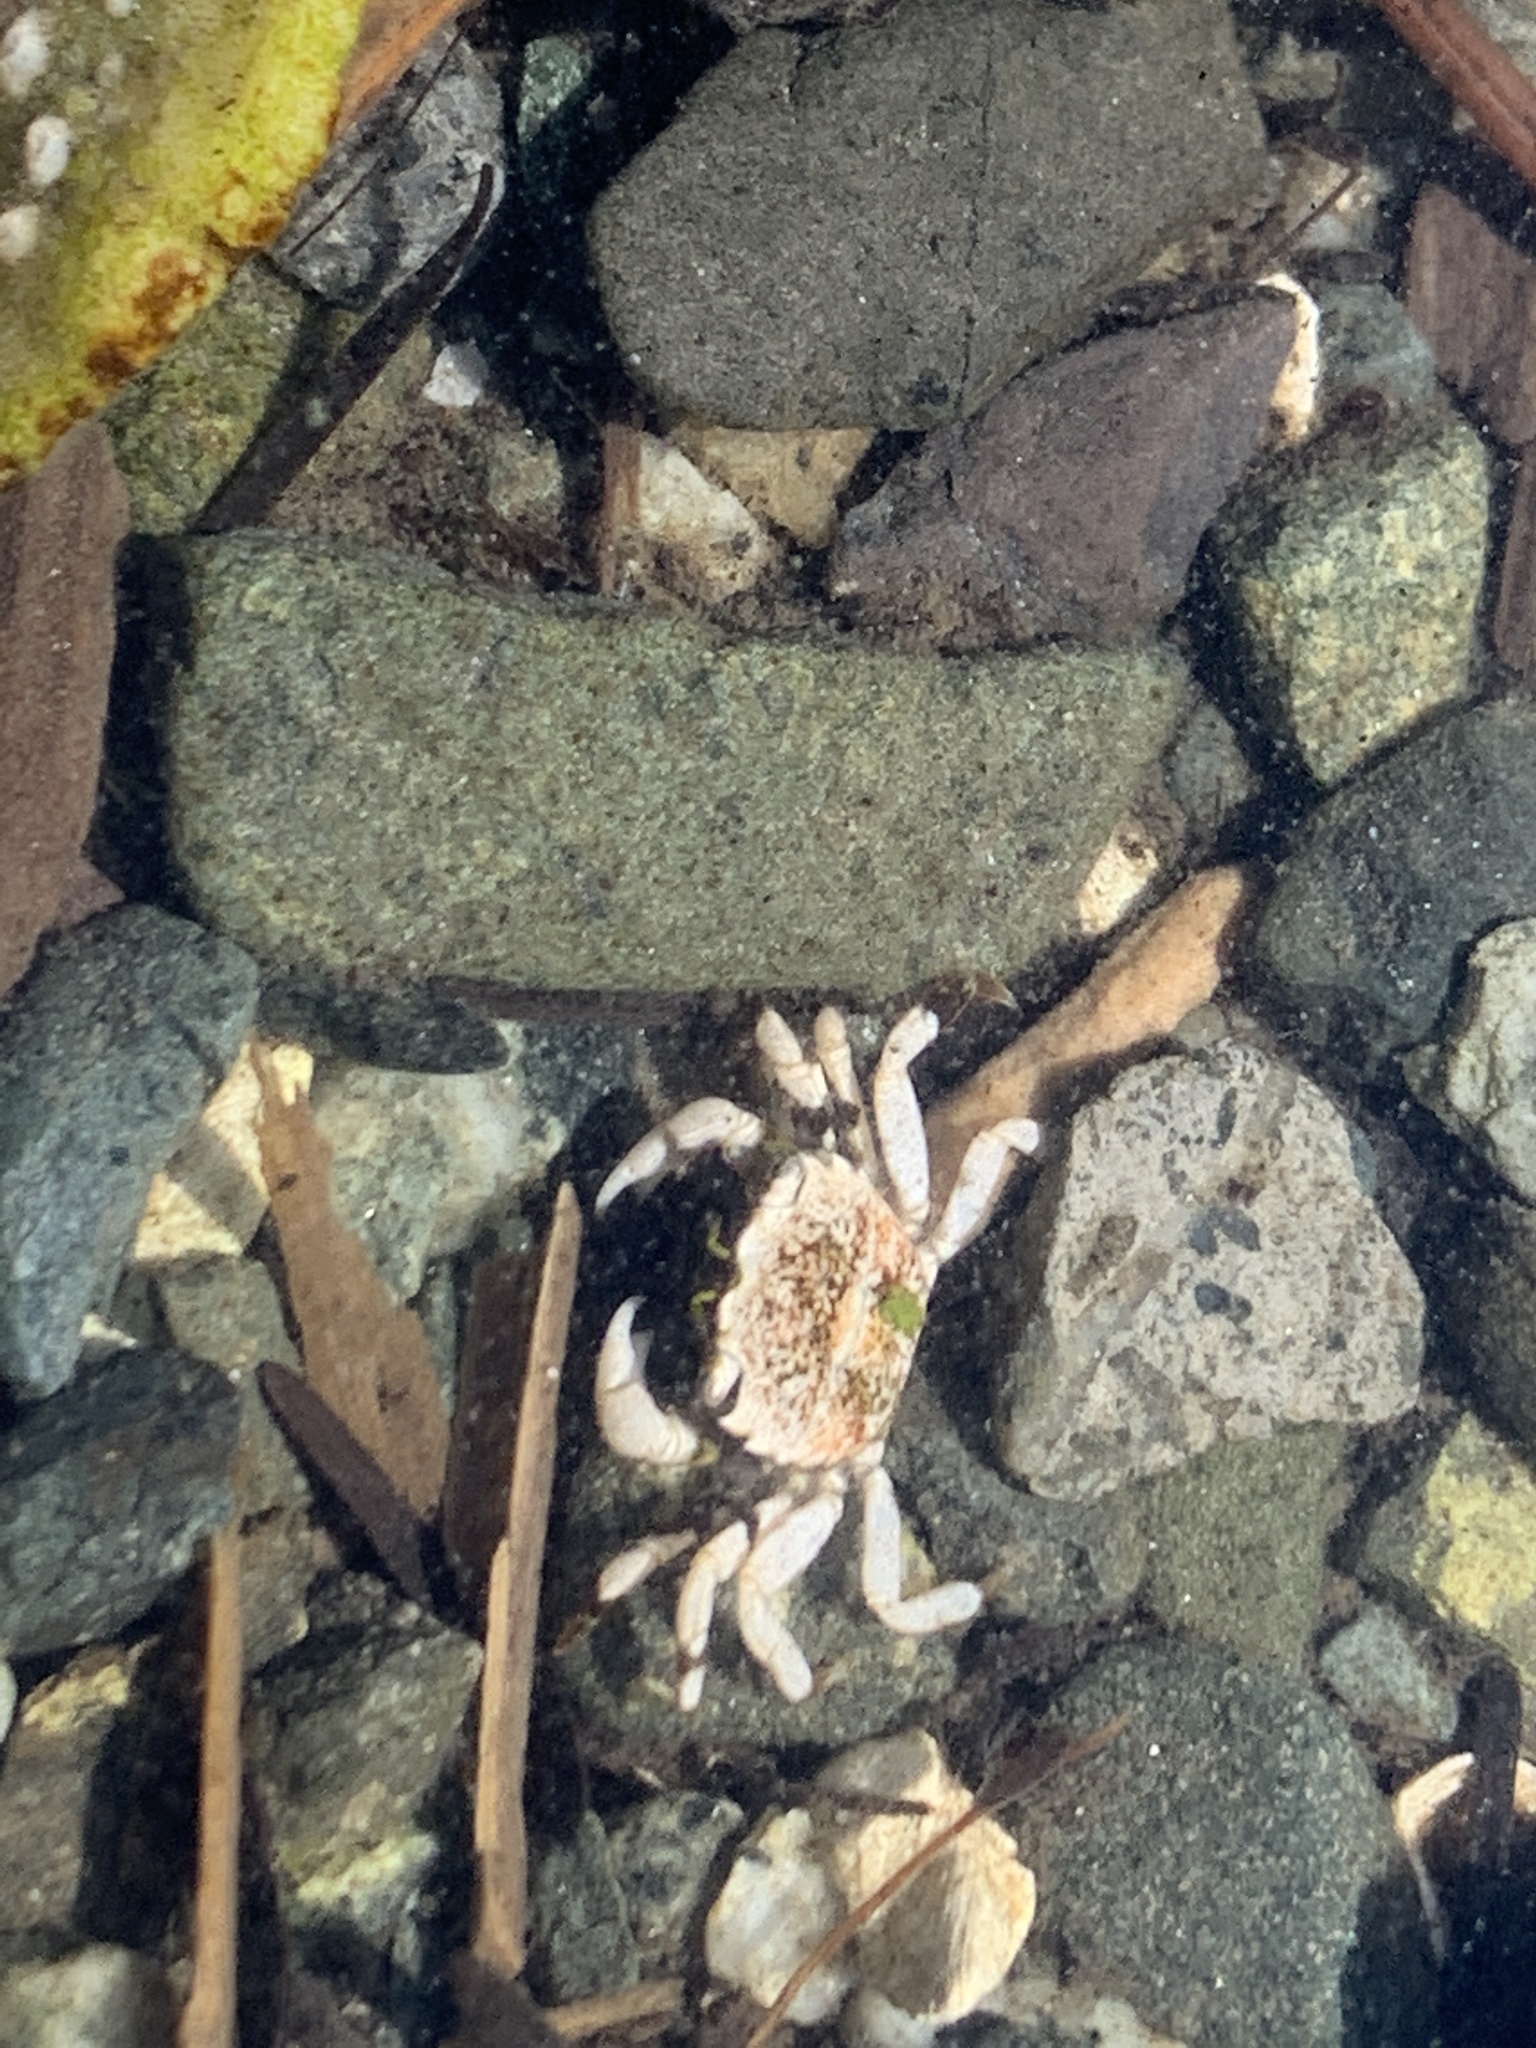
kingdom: Animalia
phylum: Arthropoda
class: Malacostraca
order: Decapoda
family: Varunidae
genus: Hemigrapsus
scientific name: Hemigrapsus oregonensis
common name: Yellow shore crab
